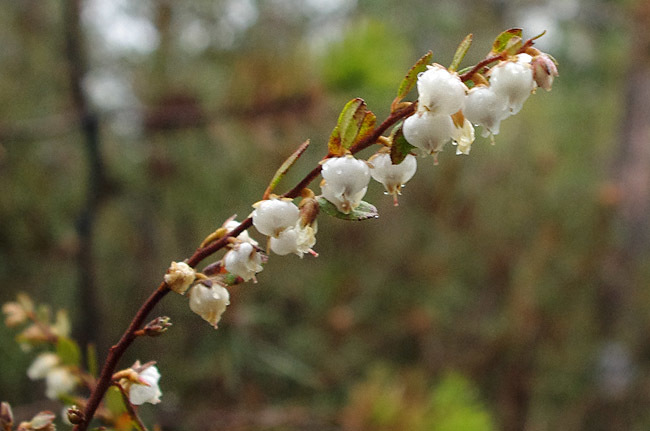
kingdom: Plantae
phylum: Tracheophyta
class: Magnoliopsida
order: Ericales
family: Ericaceae
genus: Chamaedaphne
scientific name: Chamaedaphne calyculata
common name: Leatherleaf
